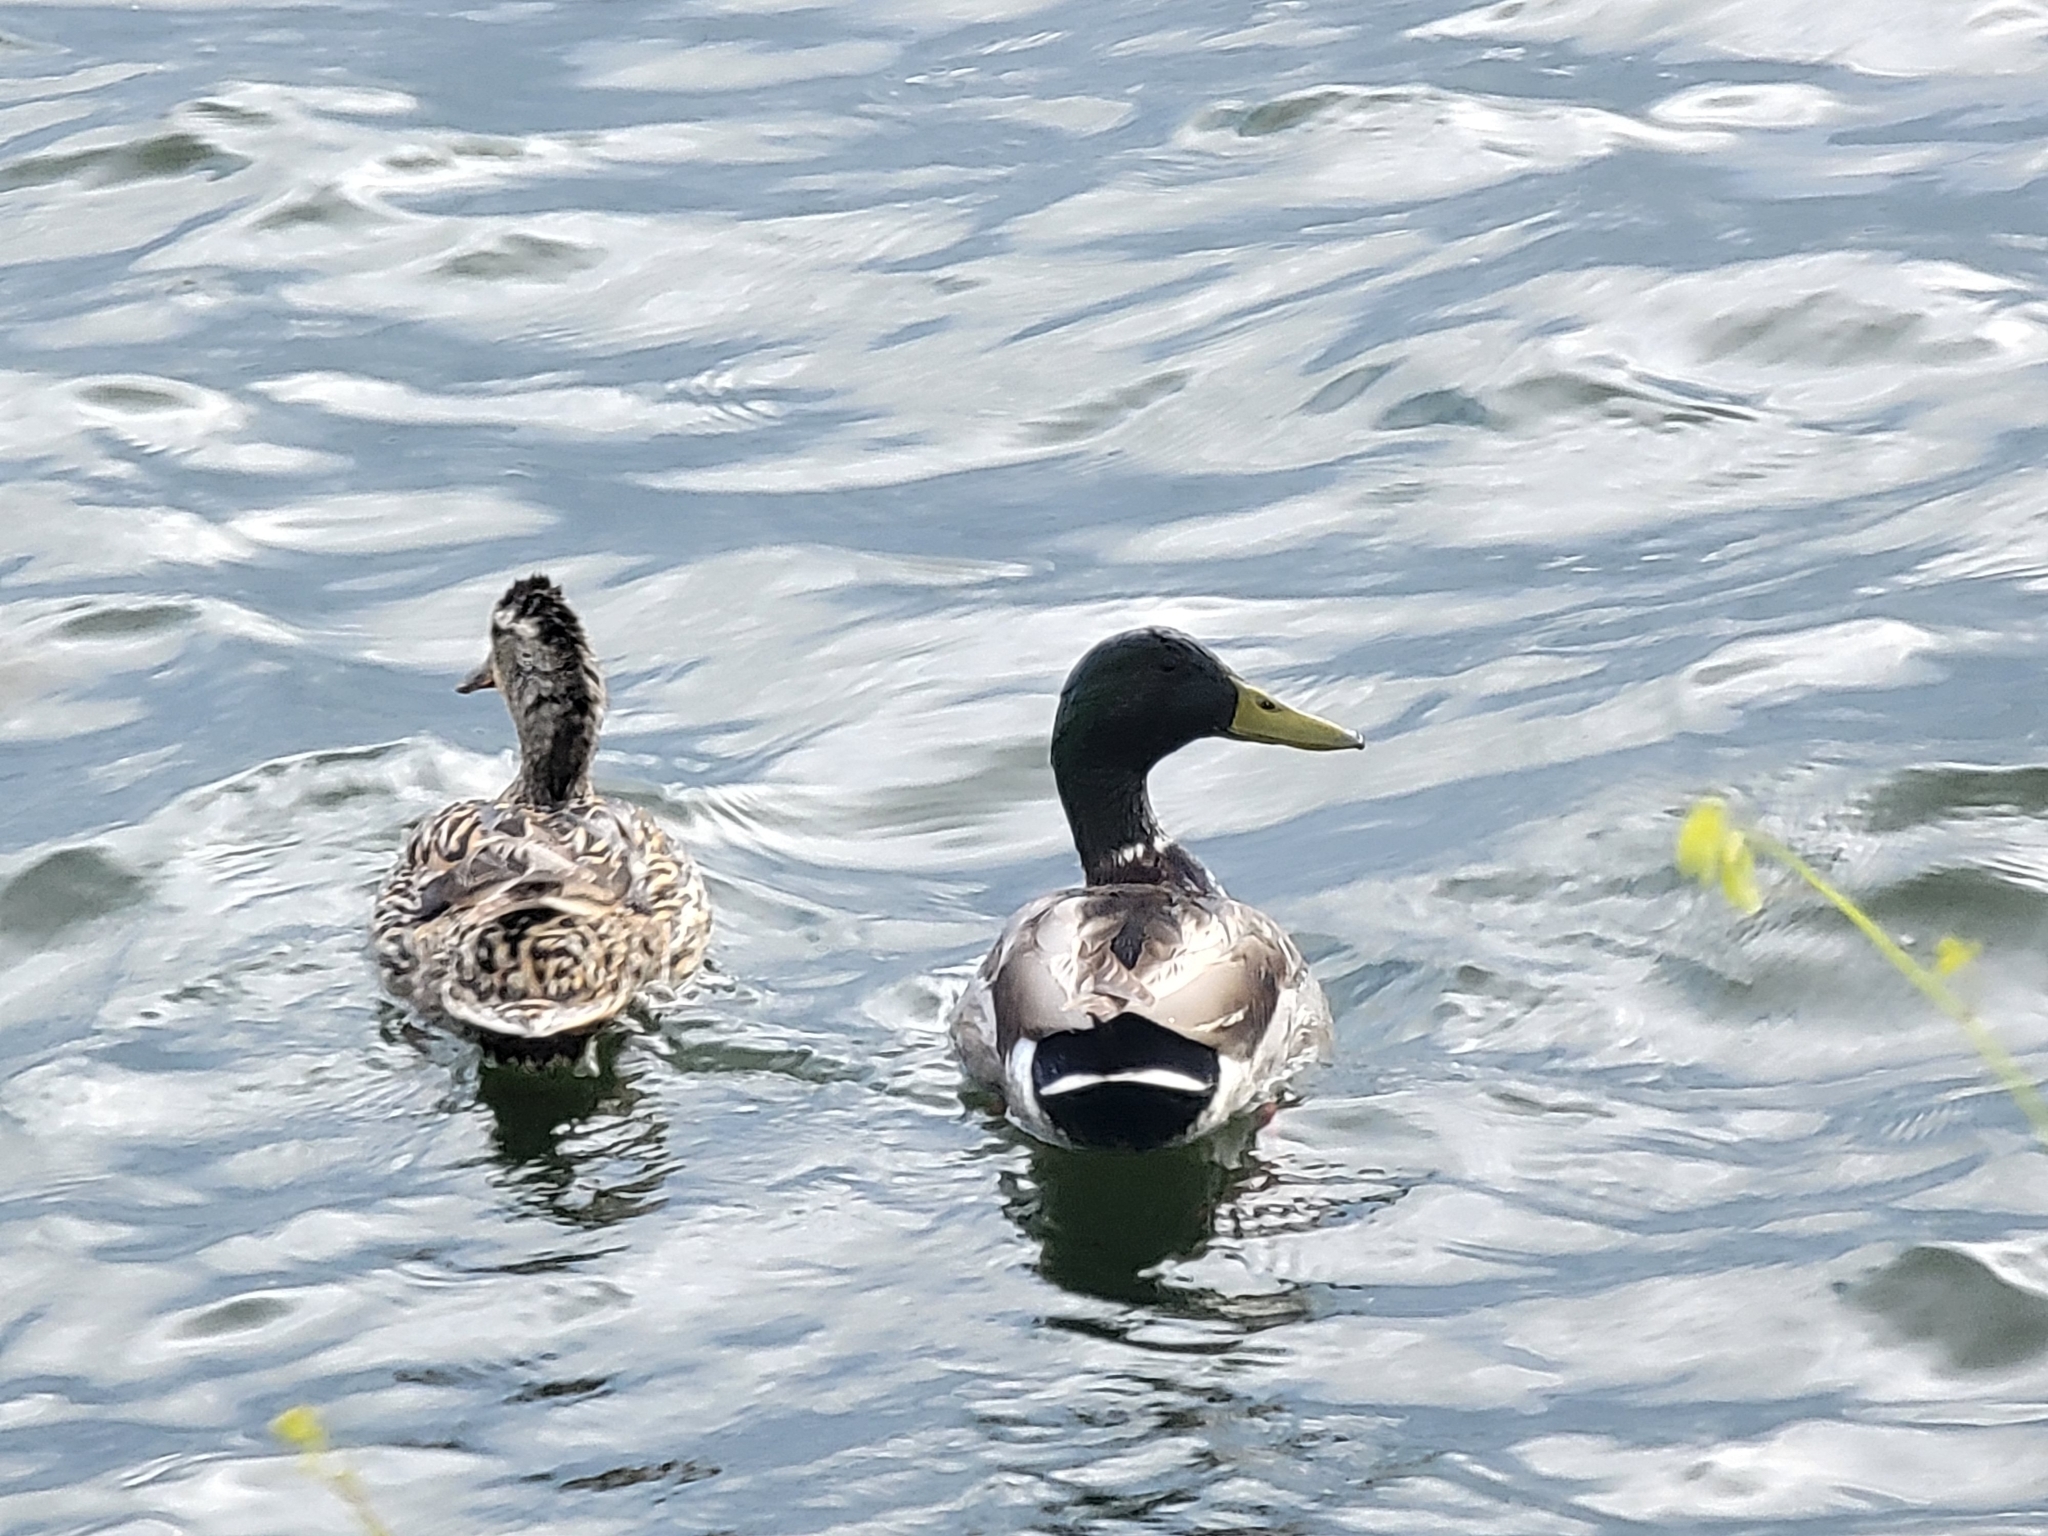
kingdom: Animalia
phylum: Chordata
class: Aves
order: Anseriformes
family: Anatidae
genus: Anas
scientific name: Anas platyrhynchos
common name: Mallard
